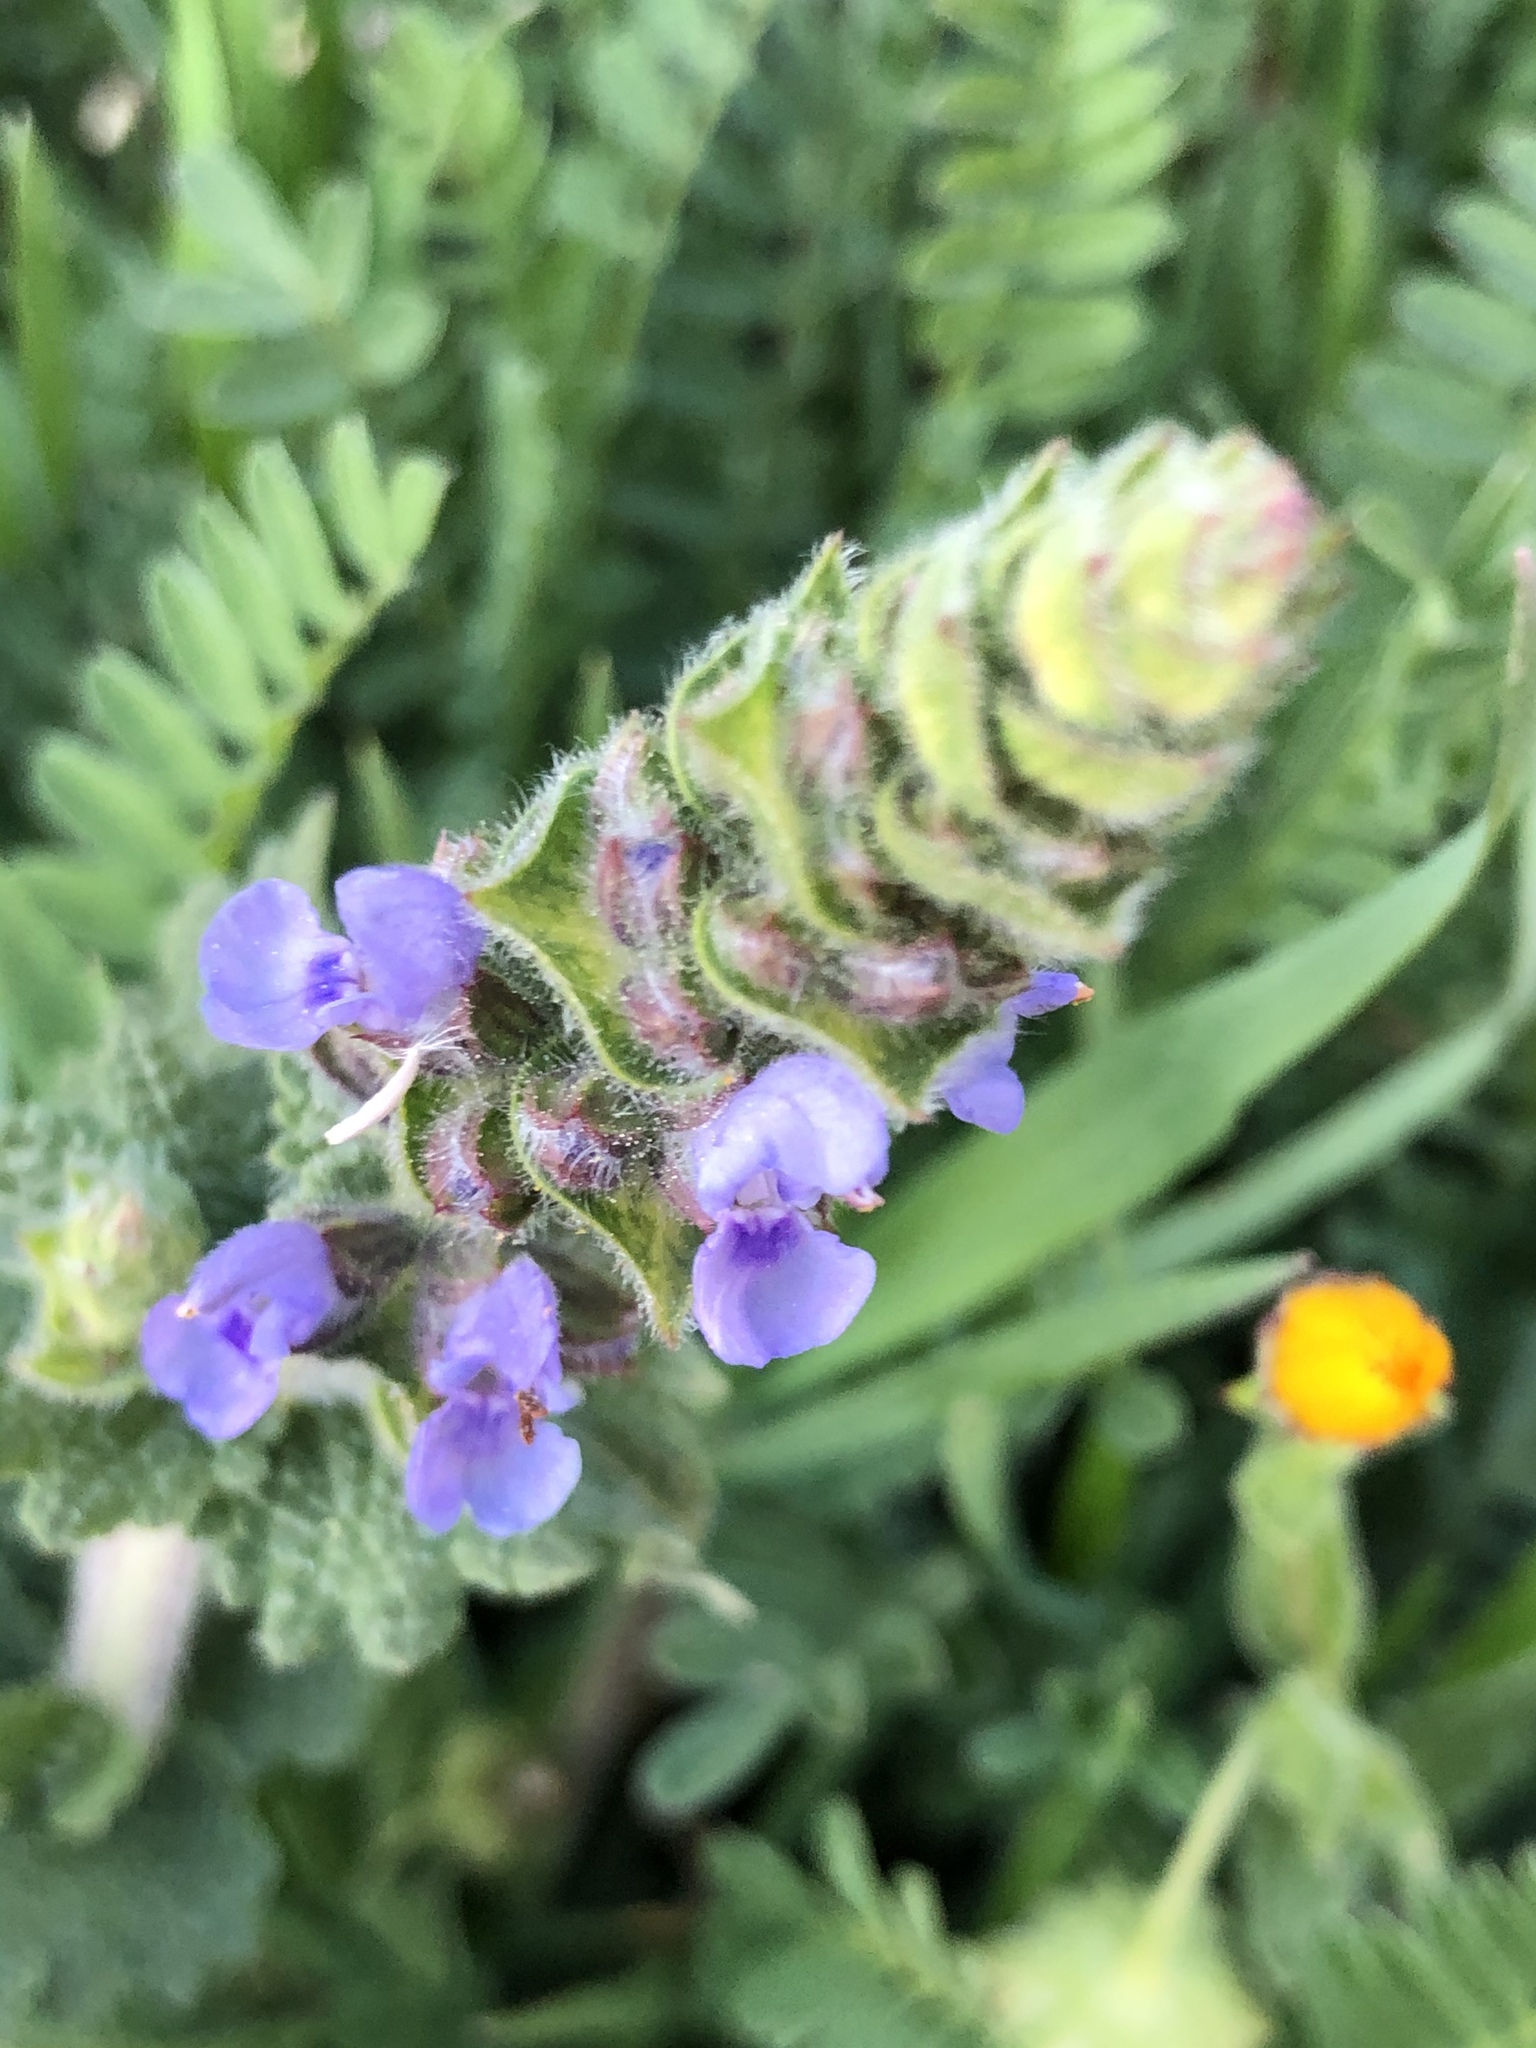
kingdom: Plantae
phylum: Tracheophyta
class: Magnoliopsida
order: Lamiales
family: Lamiaceae
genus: Salvia
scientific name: Salvia verbenaca
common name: Wild clary
